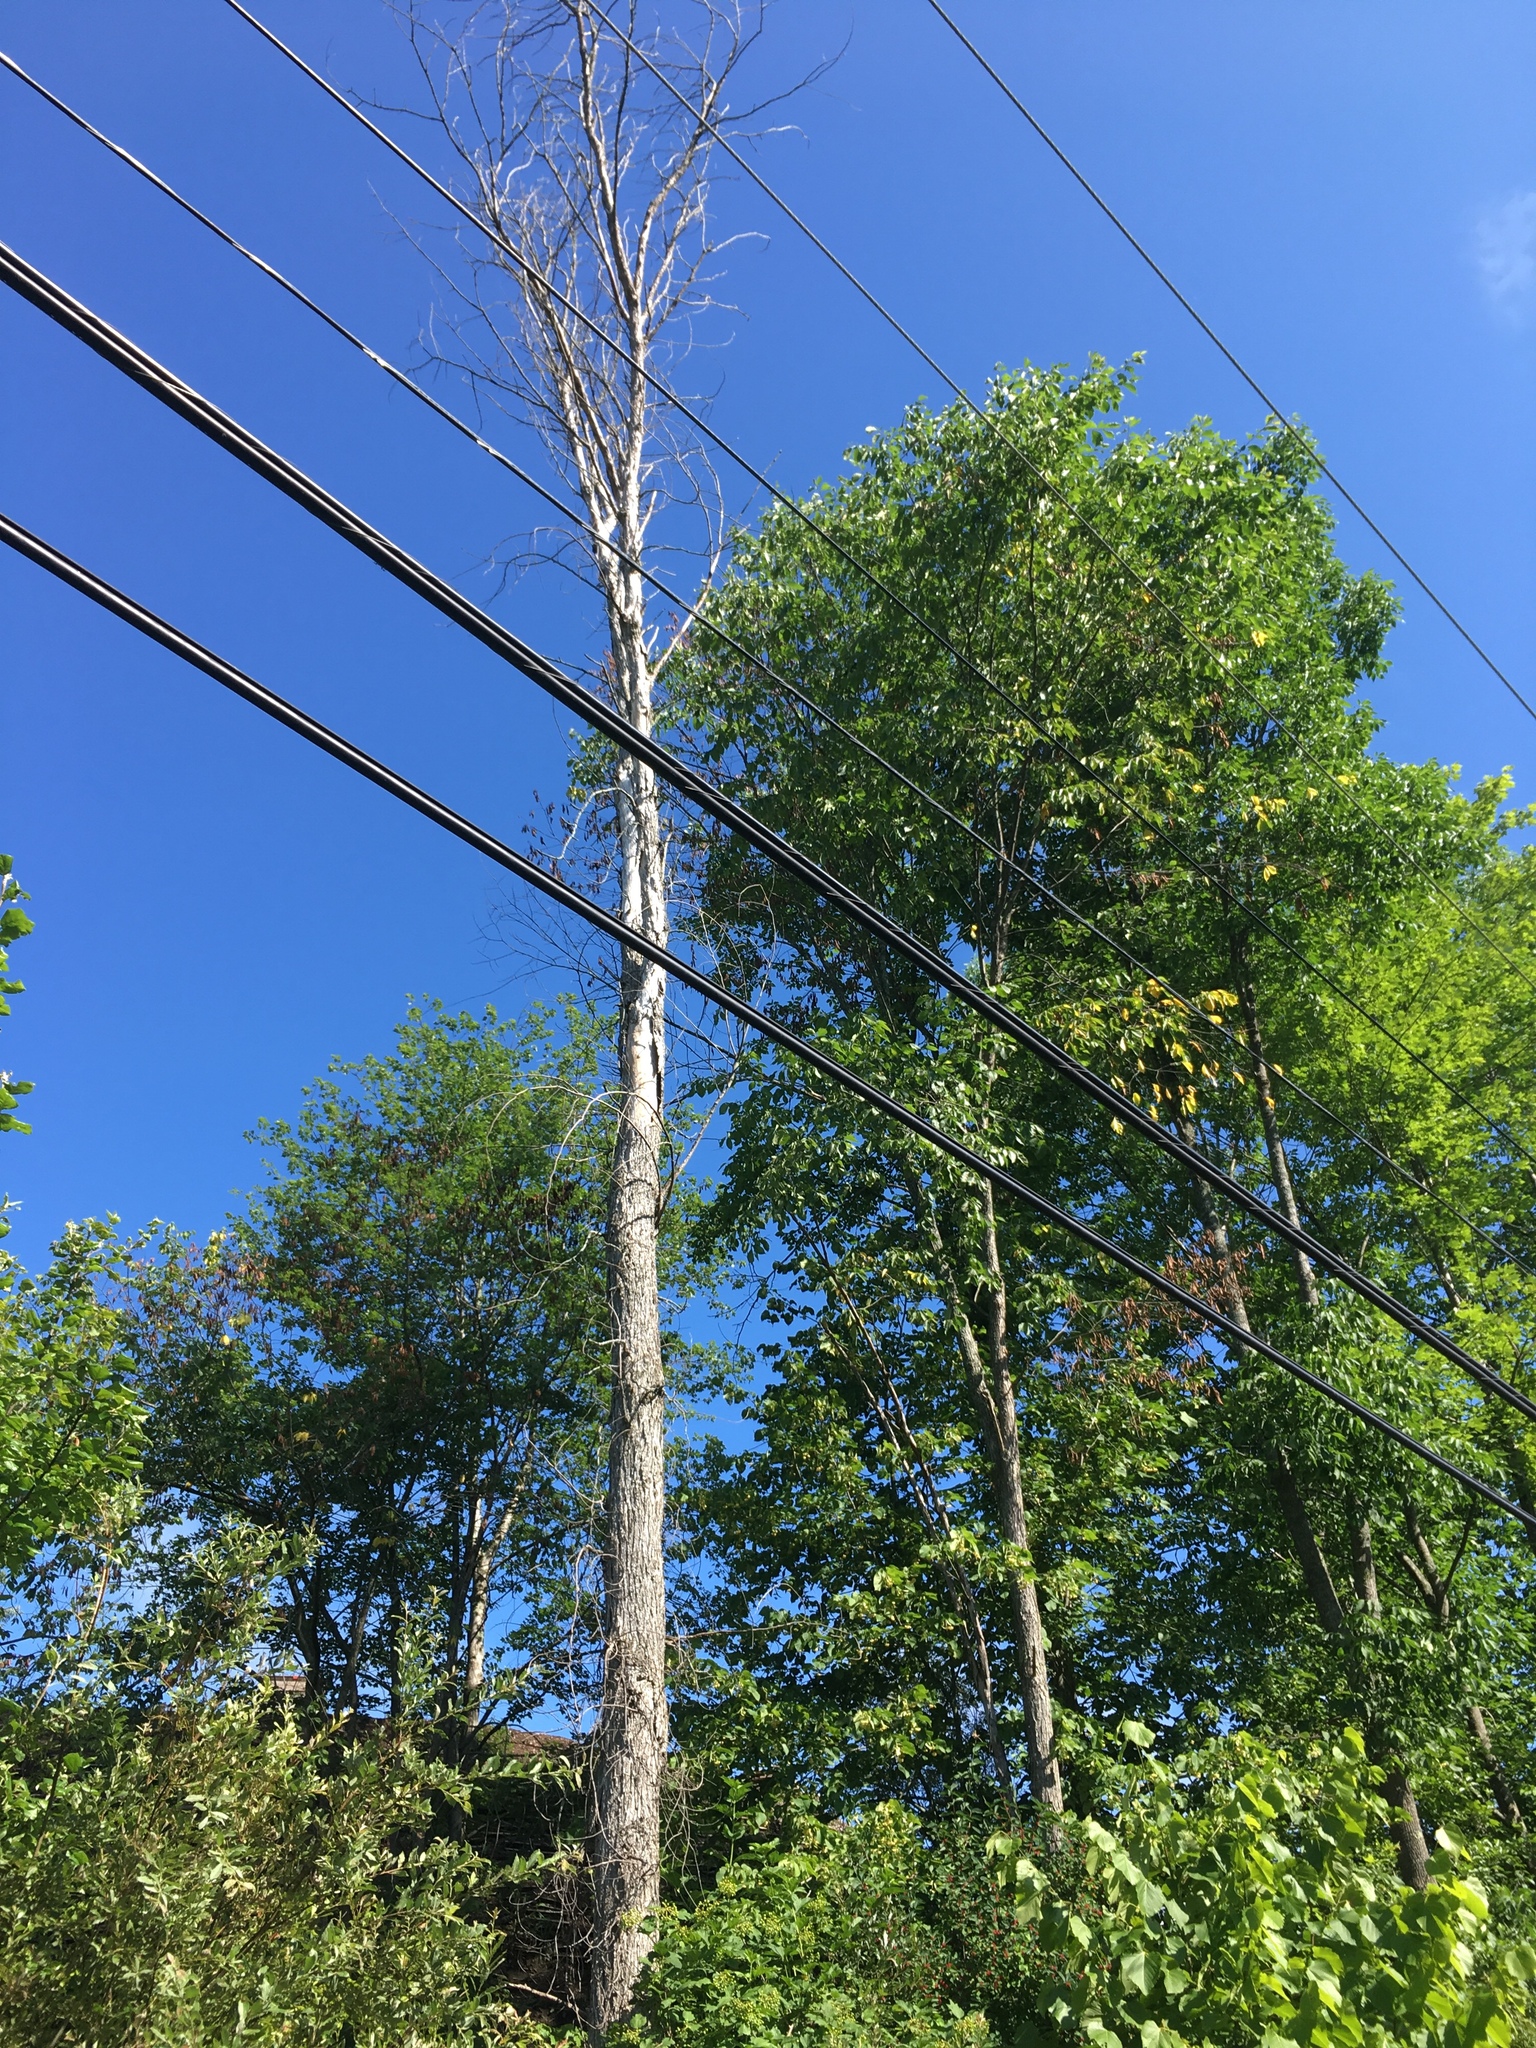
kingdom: Plantae
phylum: Tracheophyta
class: Magnoliopsida
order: Rosales
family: Ulmaceae
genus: Ulmus
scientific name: Ulmus americana
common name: American elm
